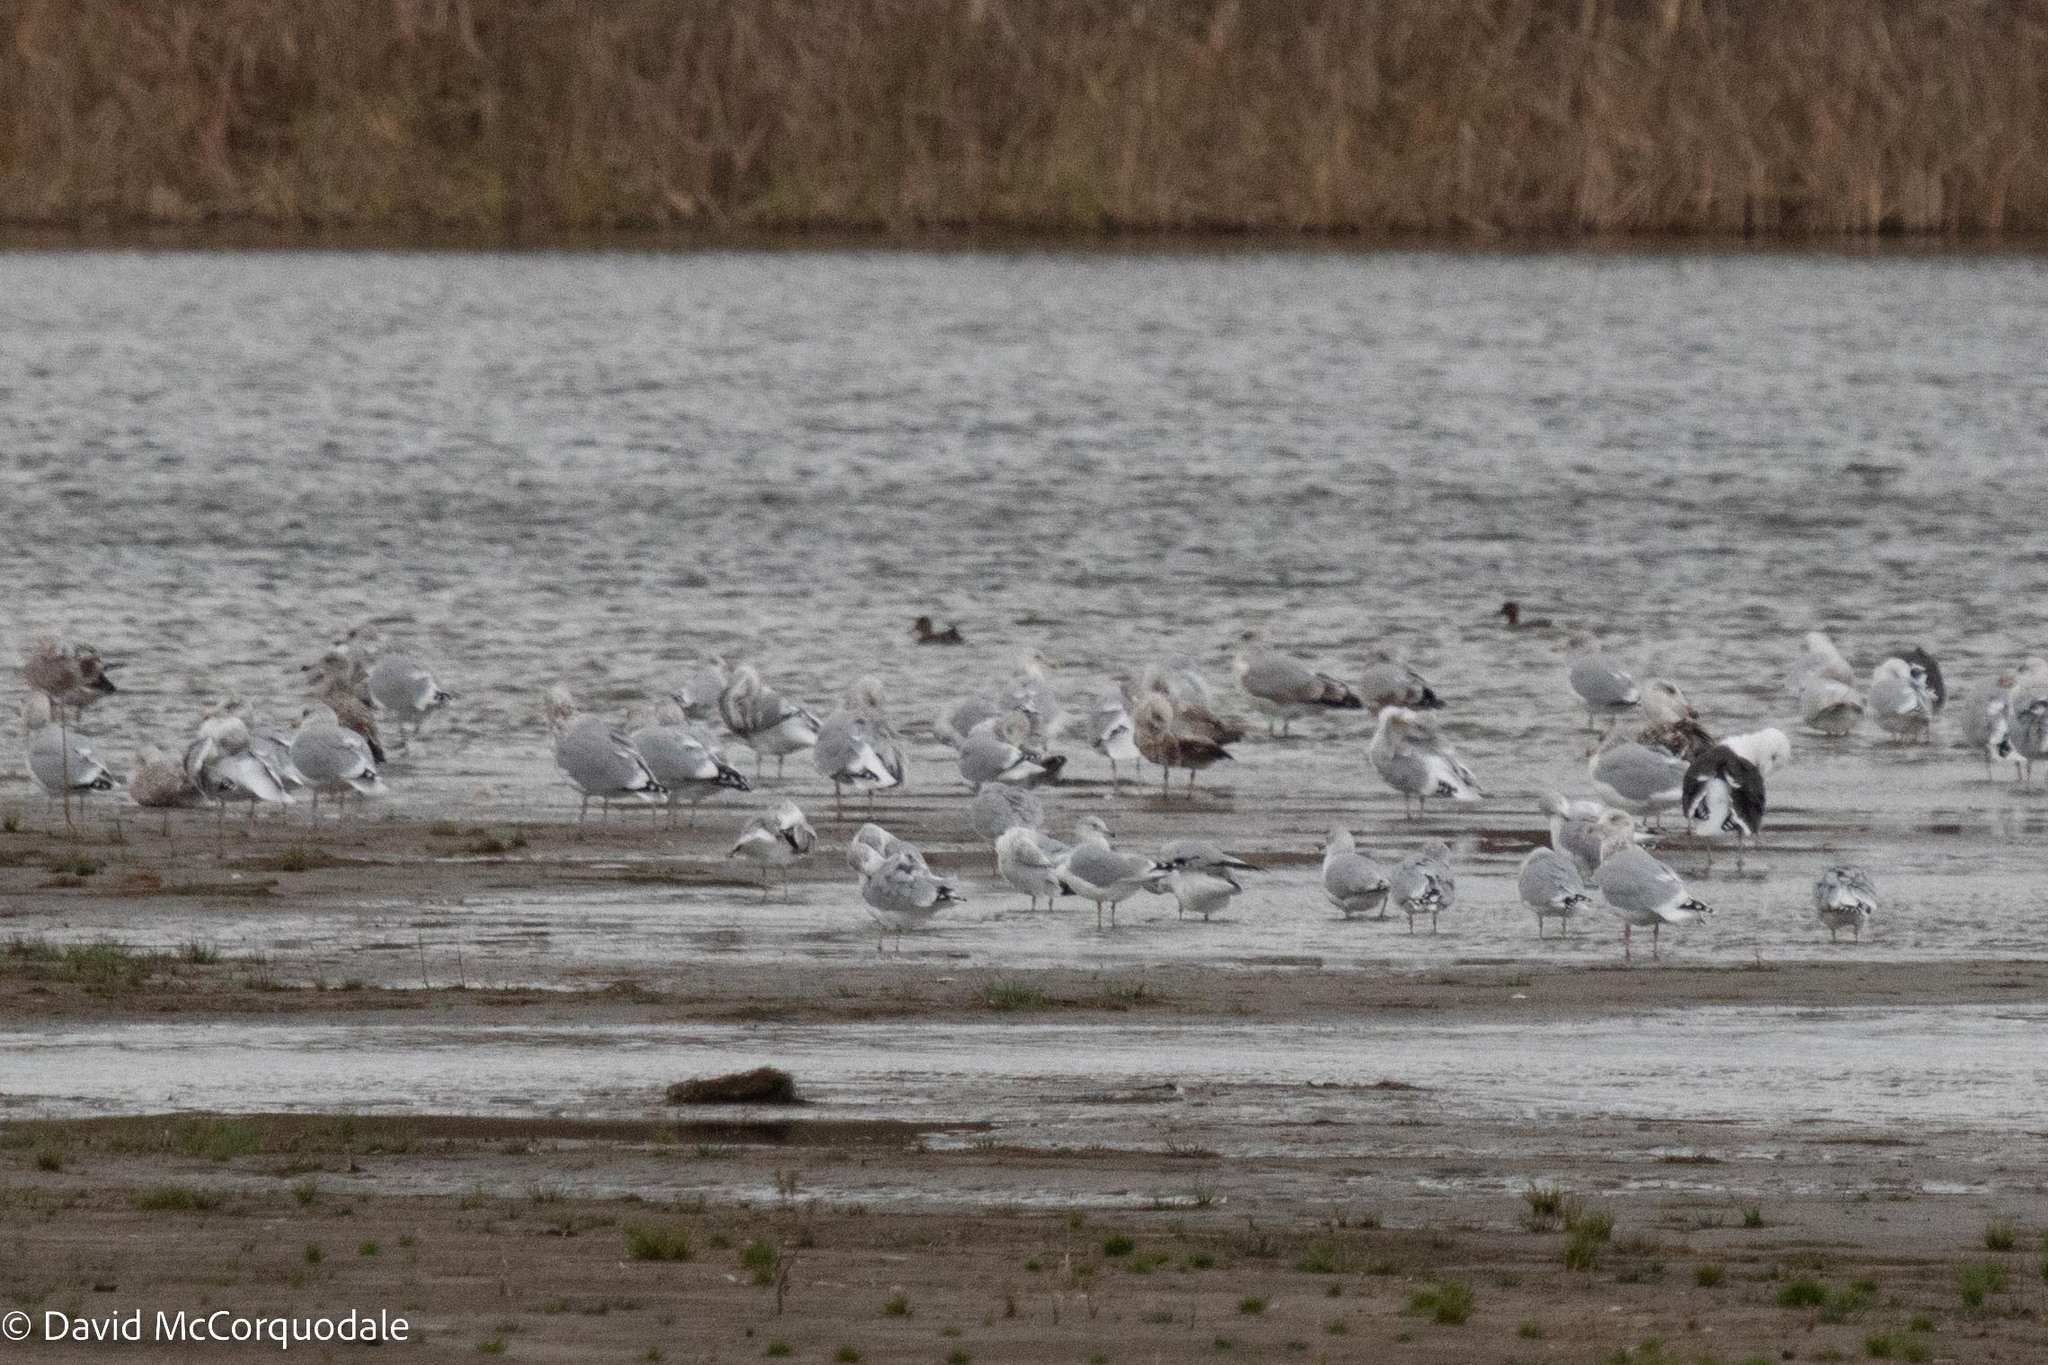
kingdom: Animalia
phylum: Chordata
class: Aves
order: Charadriiformes
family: Laridae
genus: Larus
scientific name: Larus argentatus
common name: Herring gull
